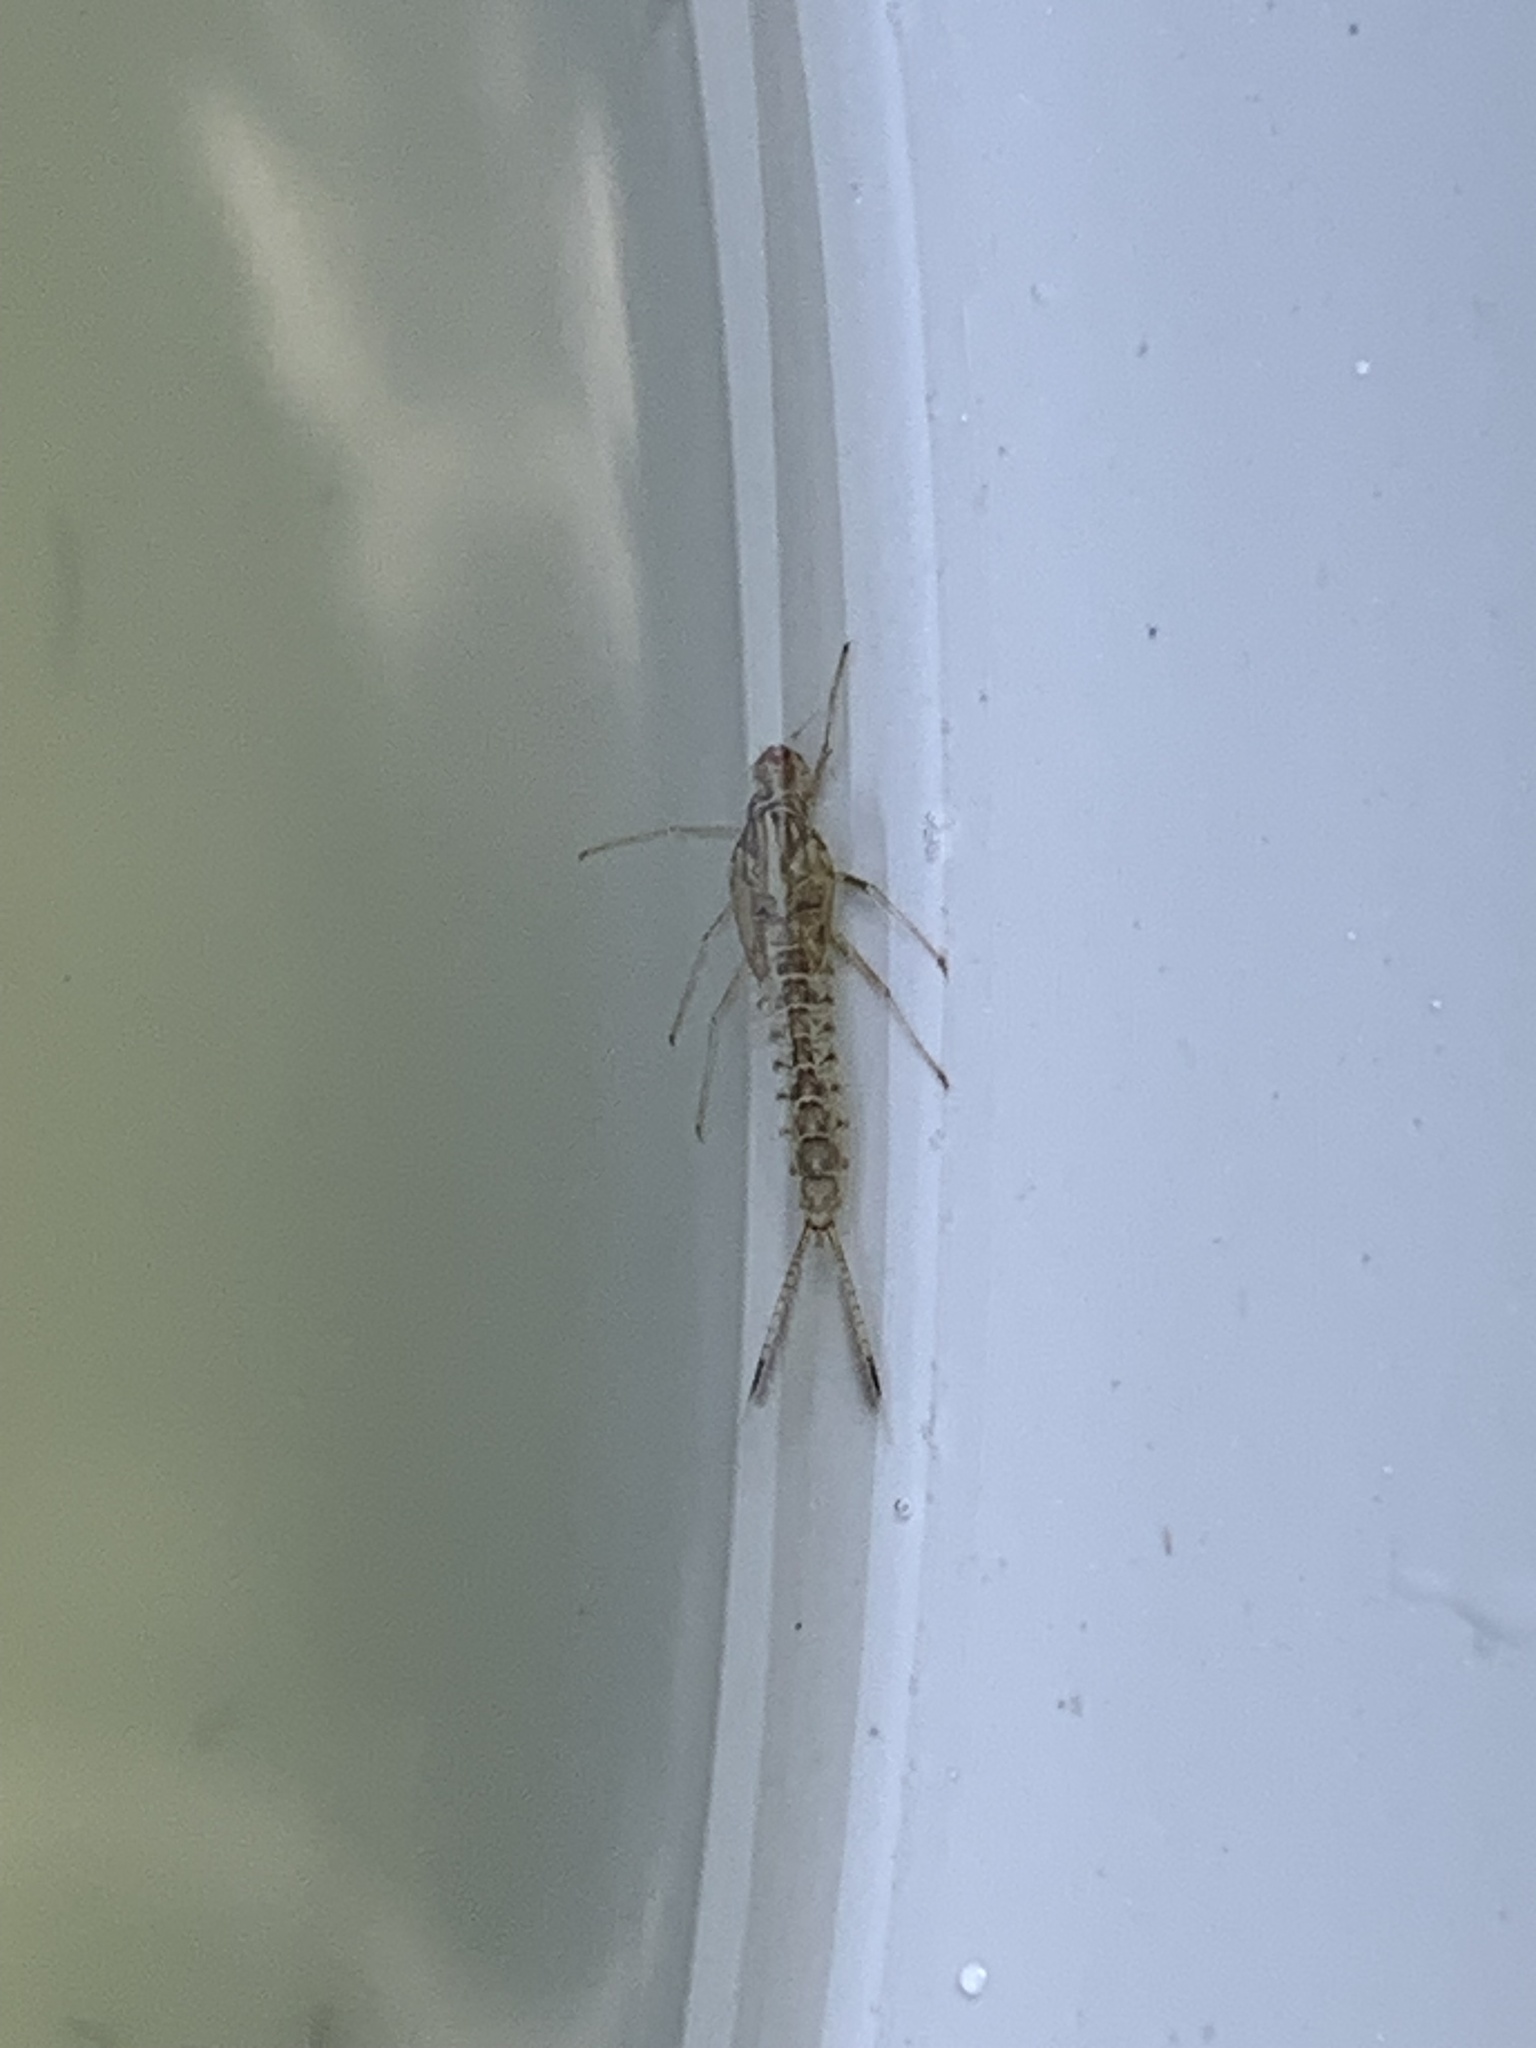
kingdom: Animalia
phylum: Arthropoda
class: Insecta
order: Ephemeroptera
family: Baetidae
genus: Cloeon
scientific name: Cloeon dipterum
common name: Pond olive
